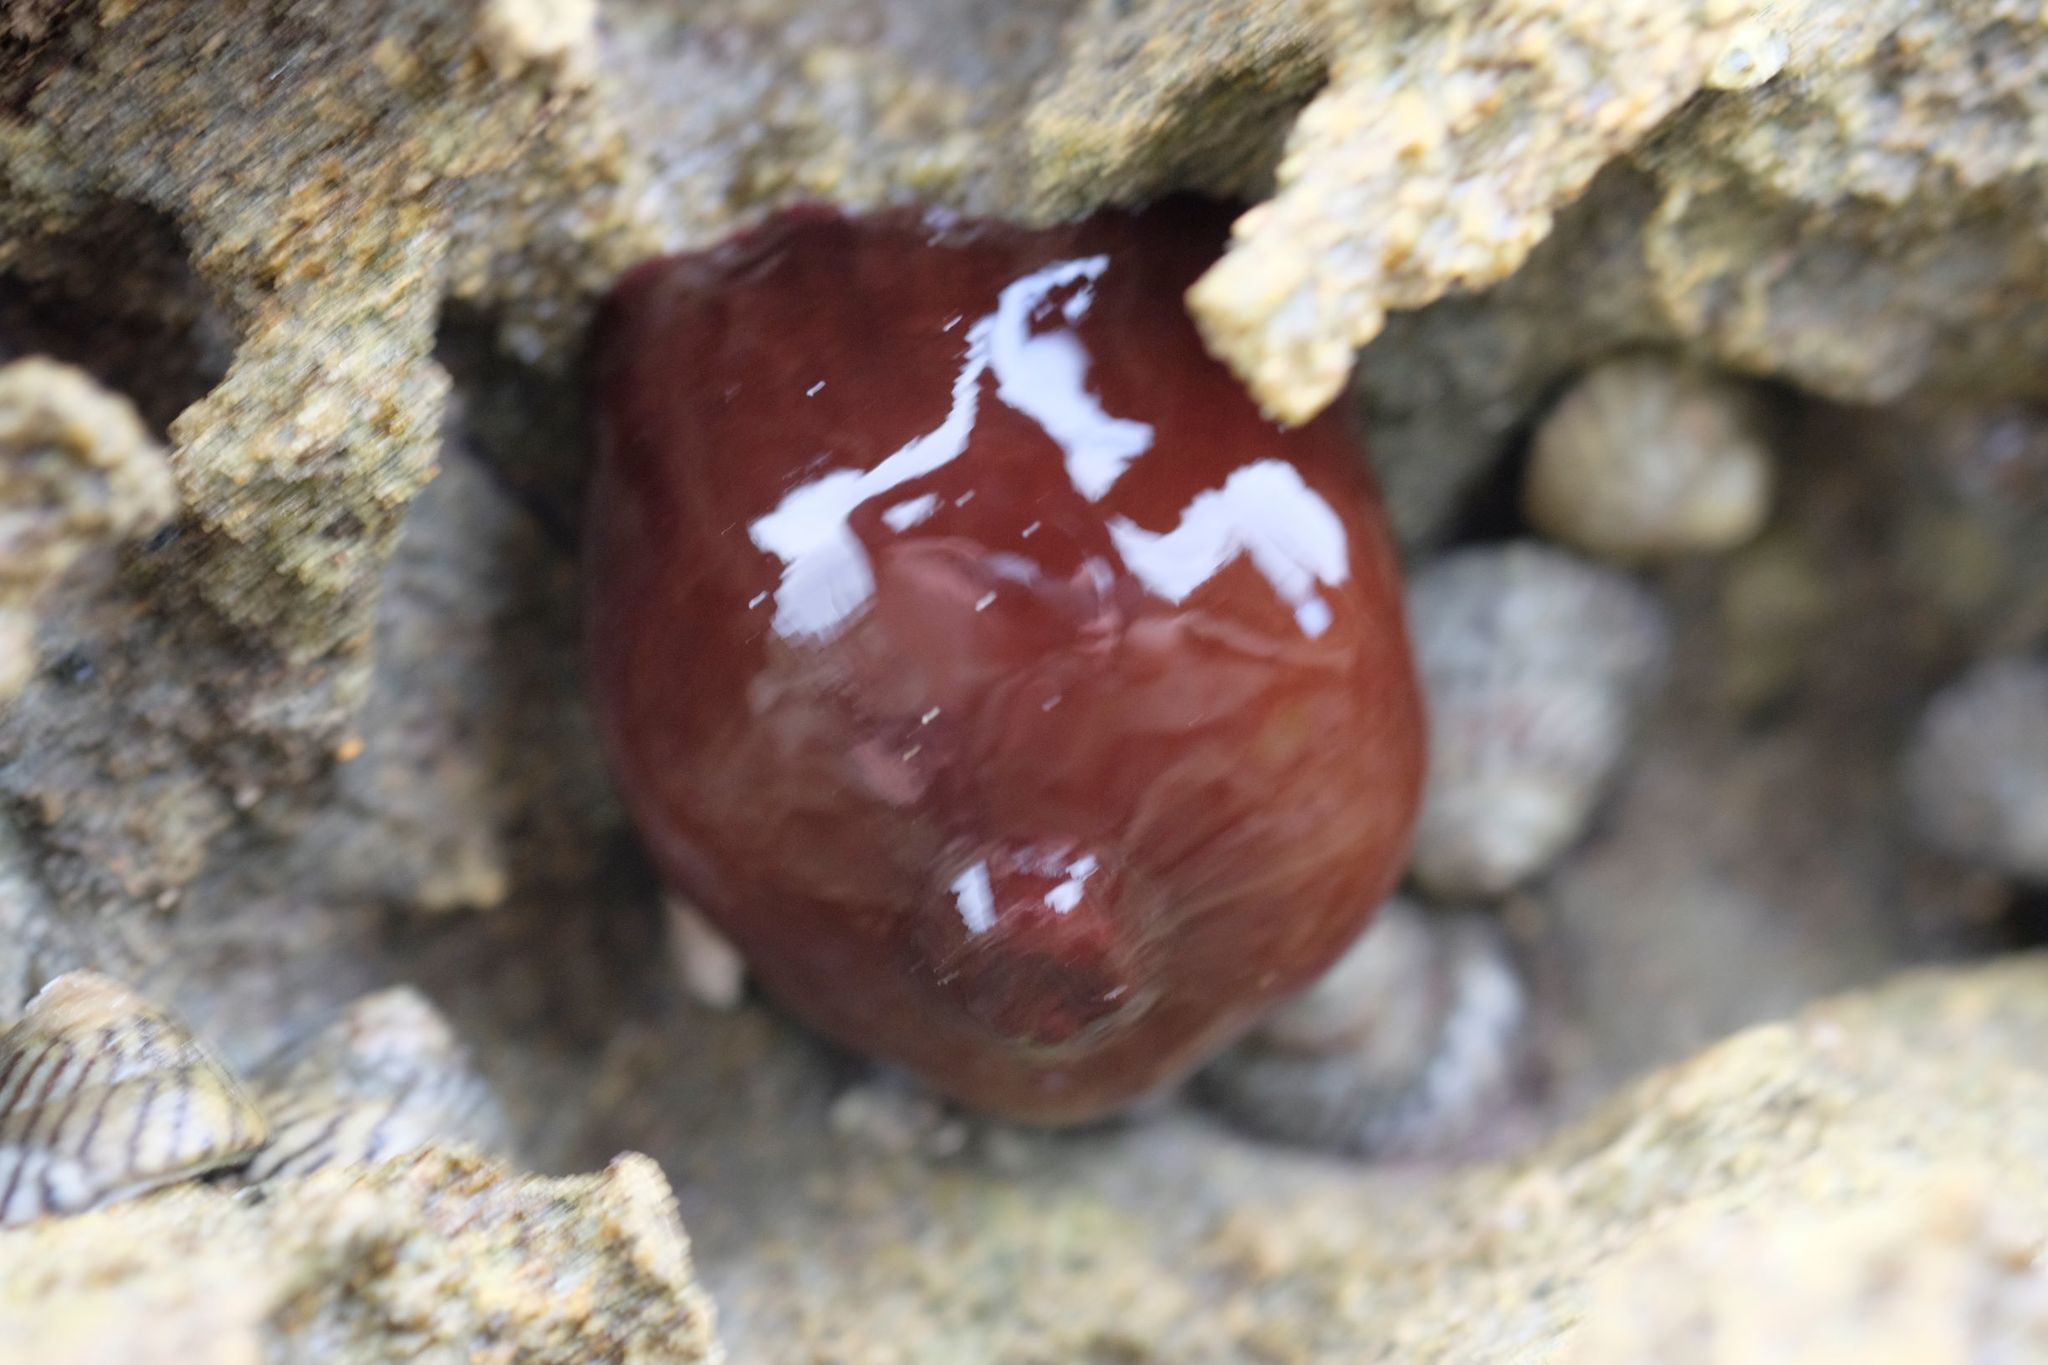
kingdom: Animalia
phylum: Cnidaria
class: Anthozoa
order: Actiniaria
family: Actiniidae
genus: Actinia
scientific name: Actinia tenebrosa
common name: Waratah anemone
